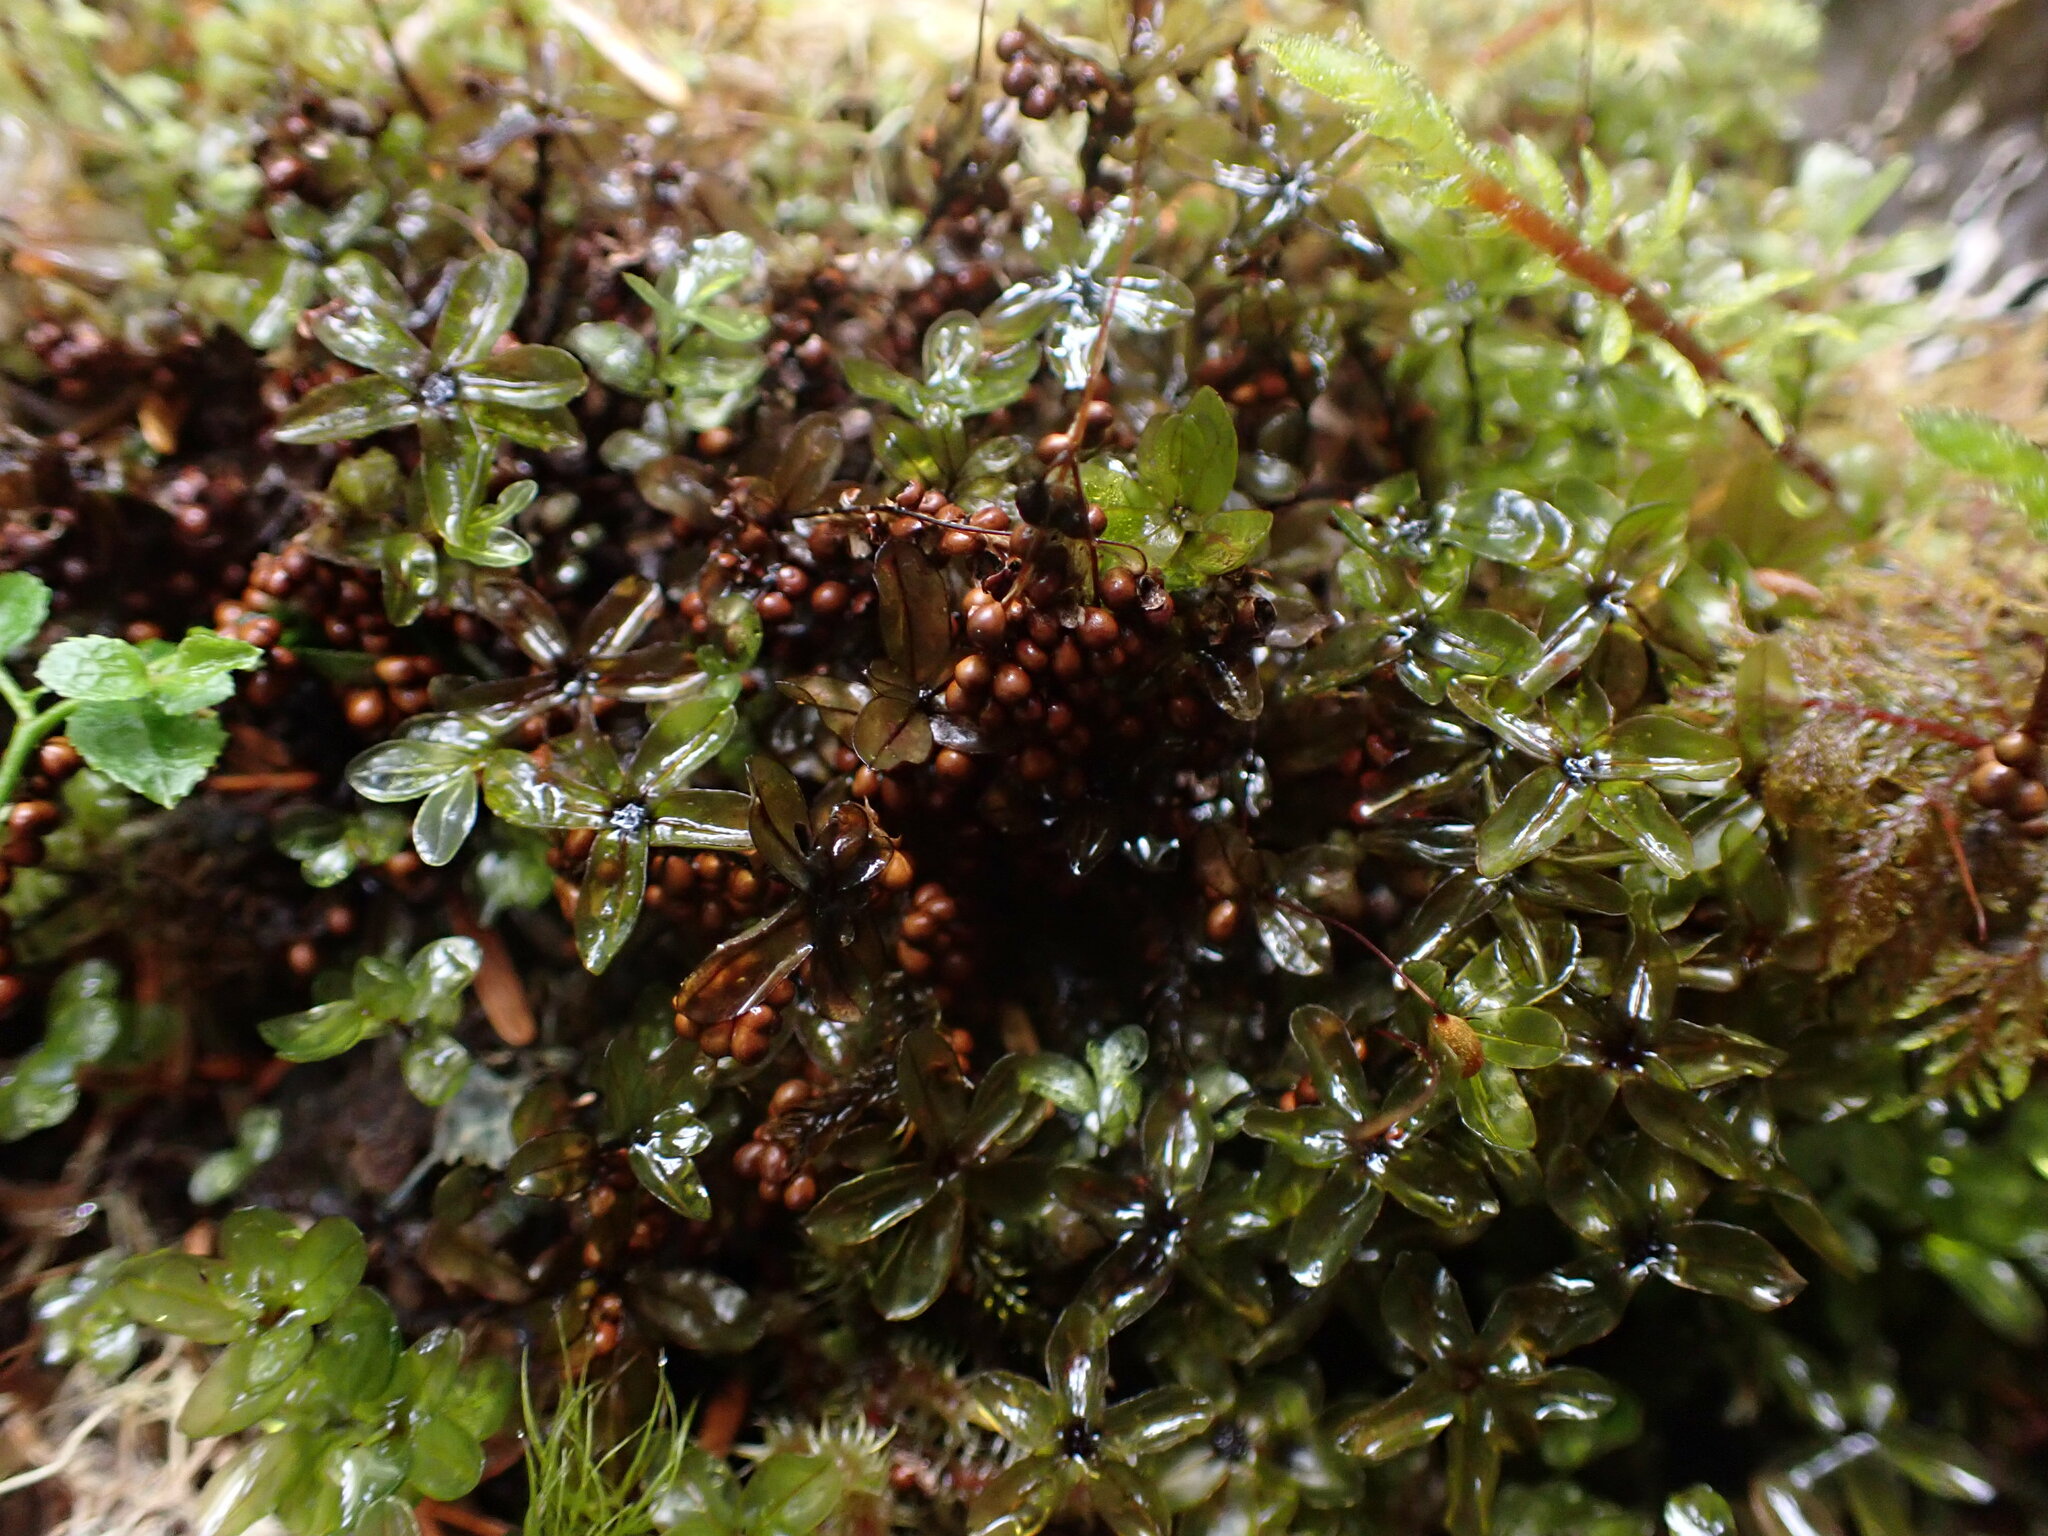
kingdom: Protozoa
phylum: Mycetozoa
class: Myxomycetes
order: Physarales
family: Physaraceae
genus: Leocarpus
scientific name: Leocarpus fragilis
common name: Insect-egg slime
